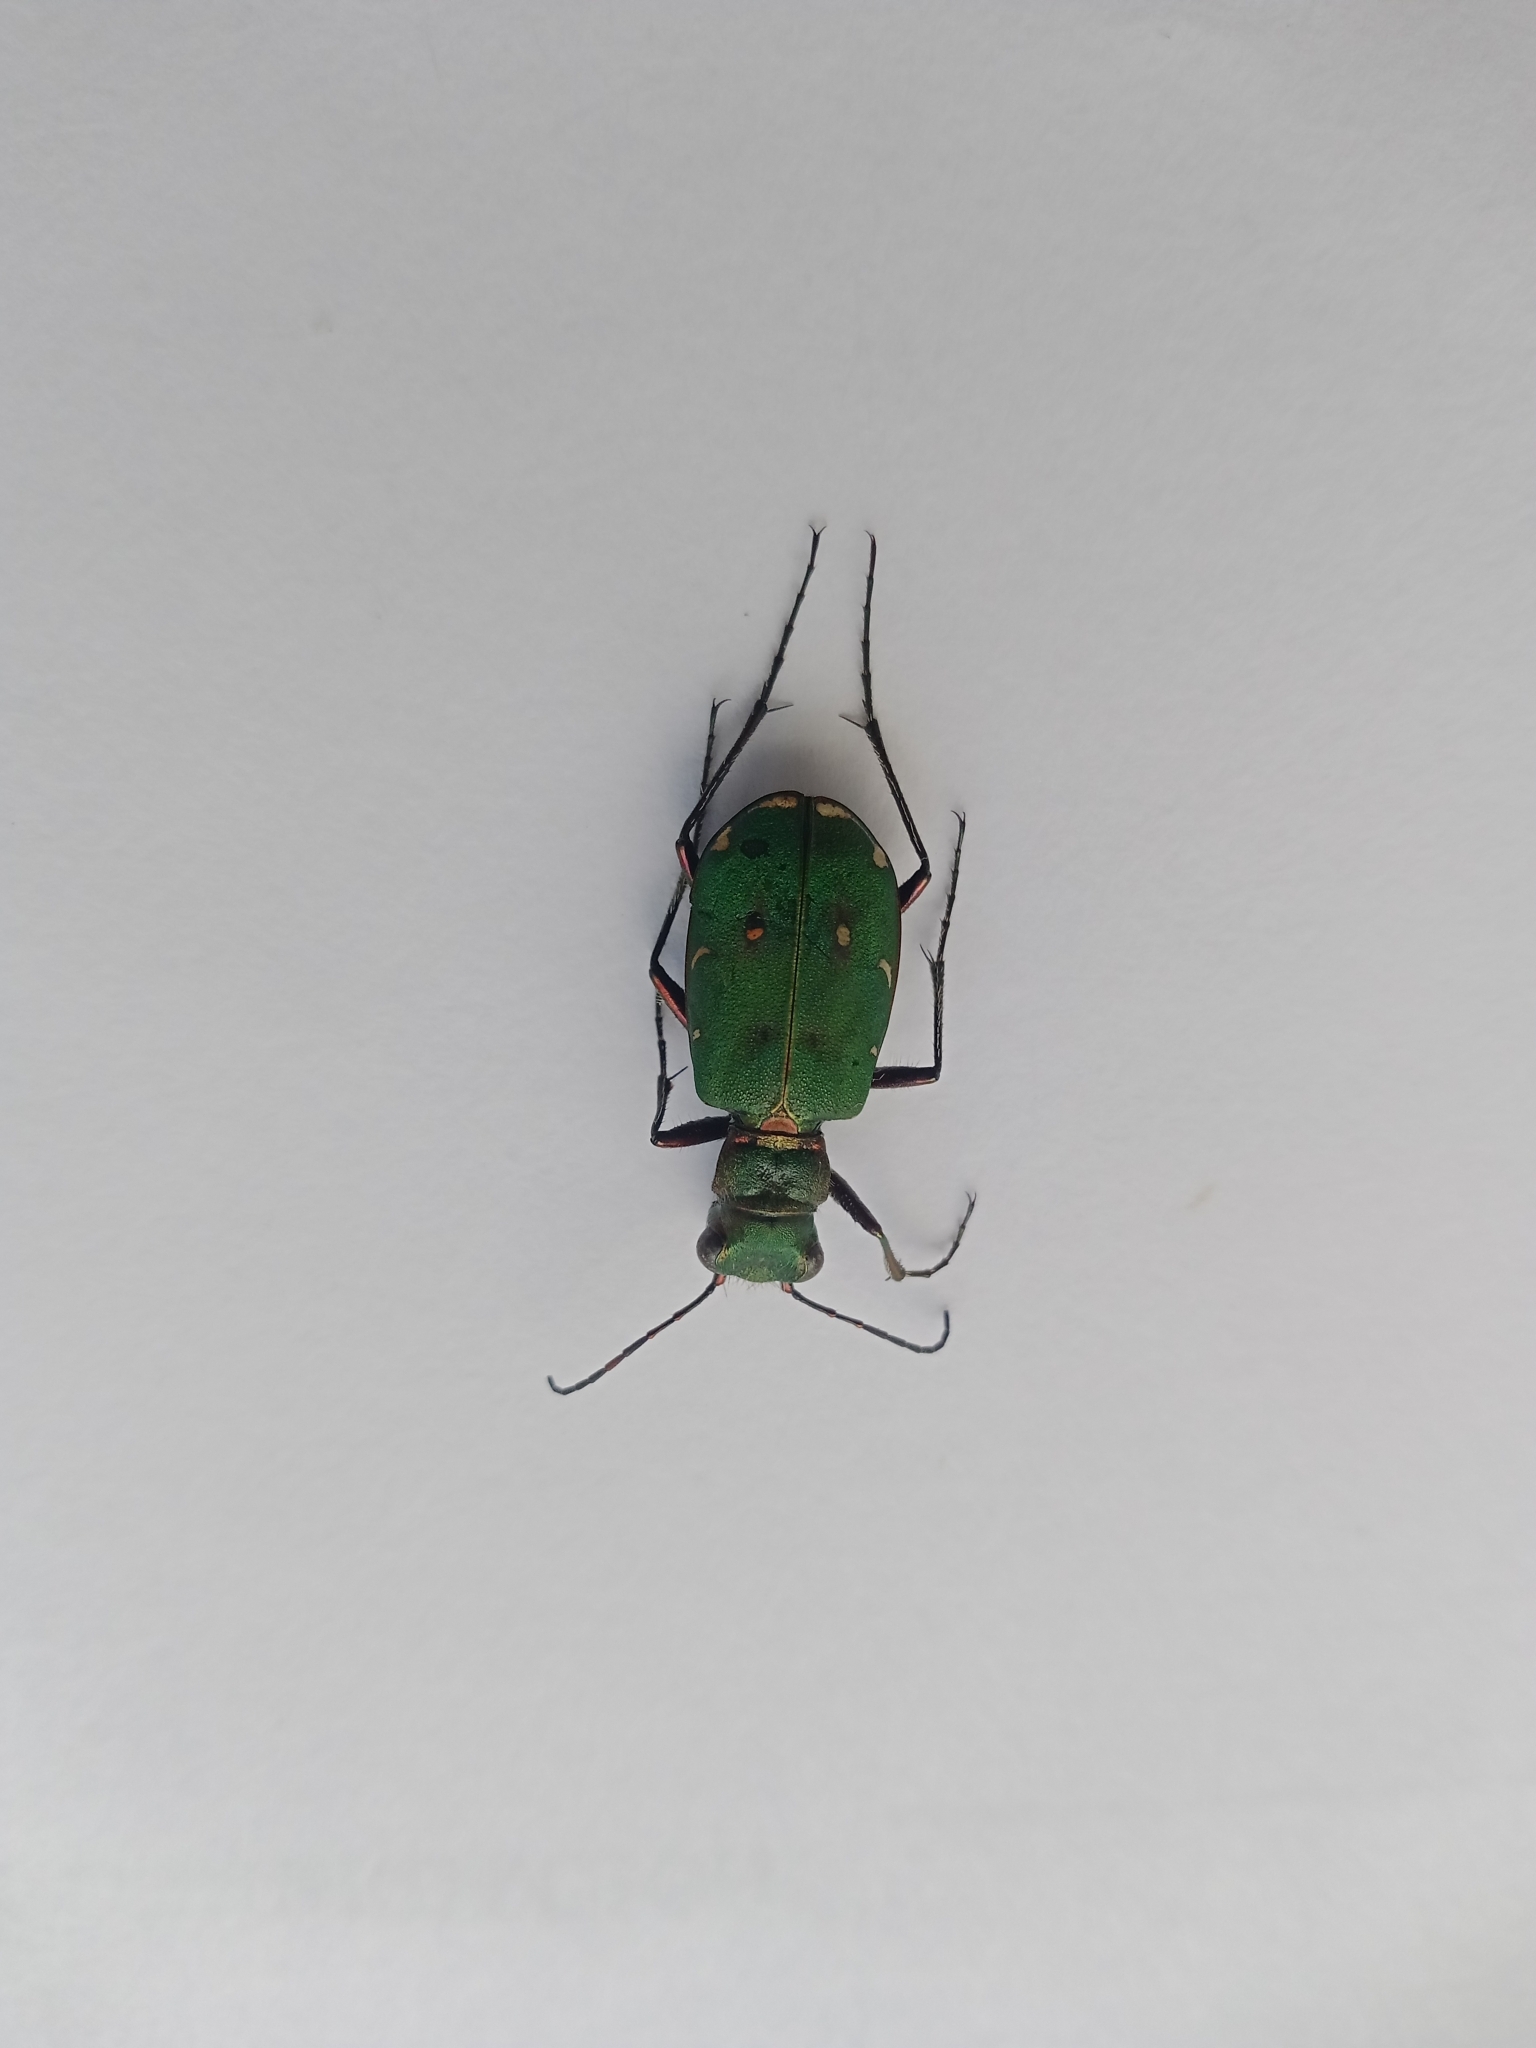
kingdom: Animalia
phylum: Arthropoda
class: Insecta
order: Coleoptera
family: Carabidae
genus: Cicindela
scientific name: Cicindela campestris
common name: Common tiger beetle
